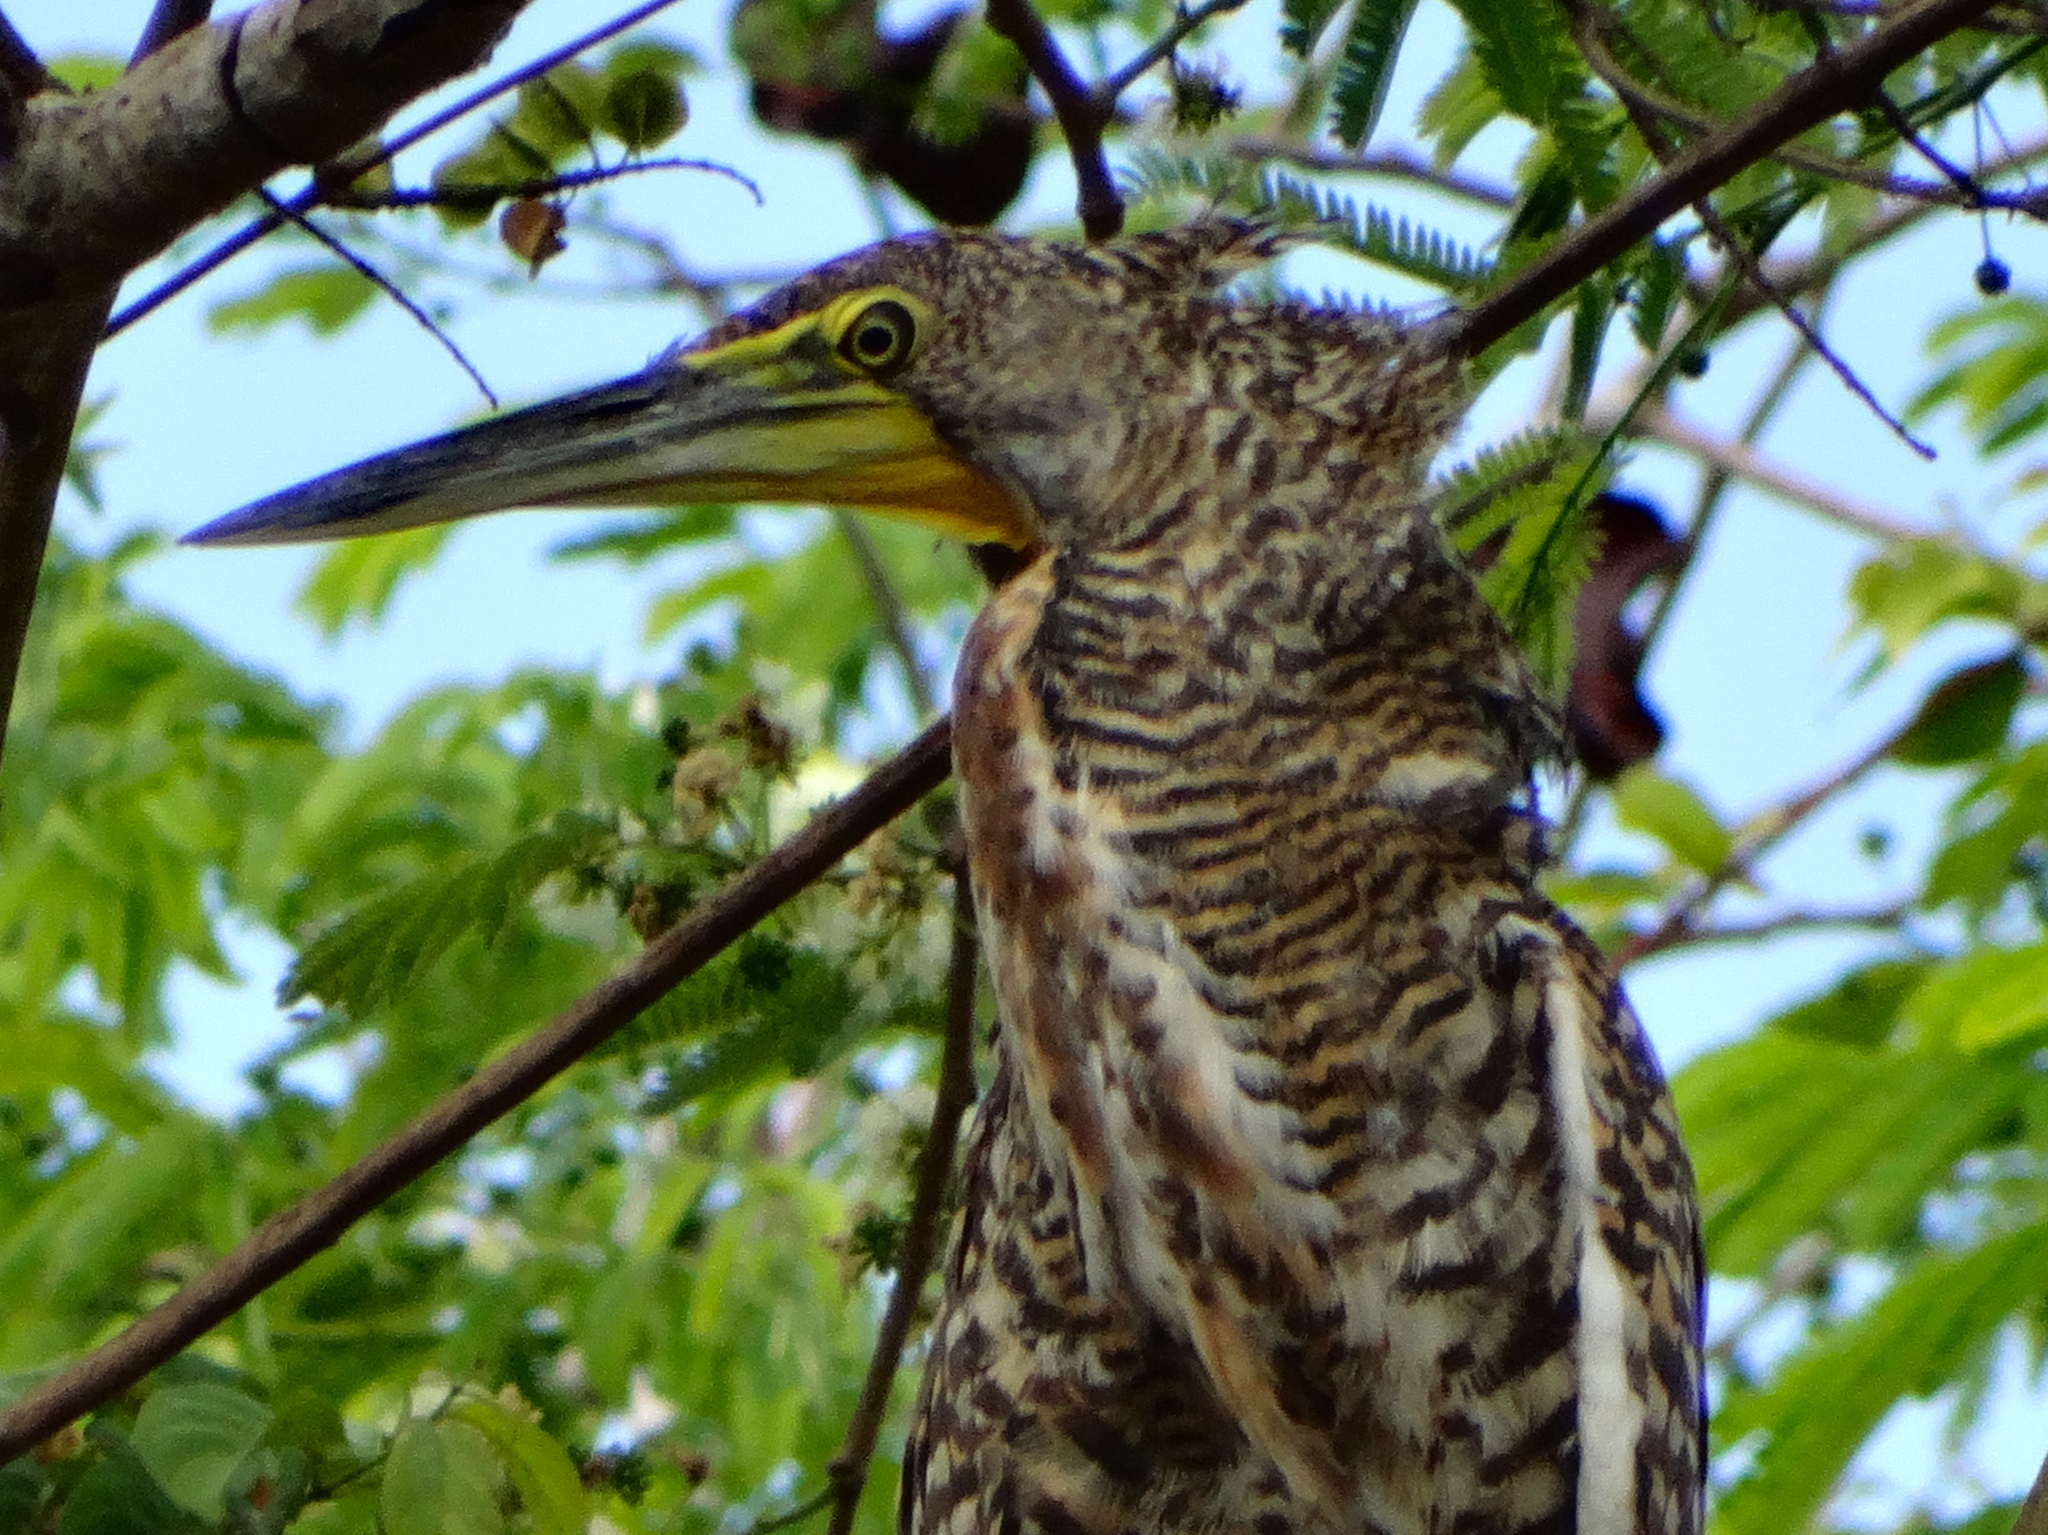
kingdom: Animalia
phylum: Chordata
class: Aves
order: Pelecaniformes
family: Ardeidae
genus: Tigrisoma
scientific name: Tigrisoma mexicanum
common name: Bare-throated tiger-heron
